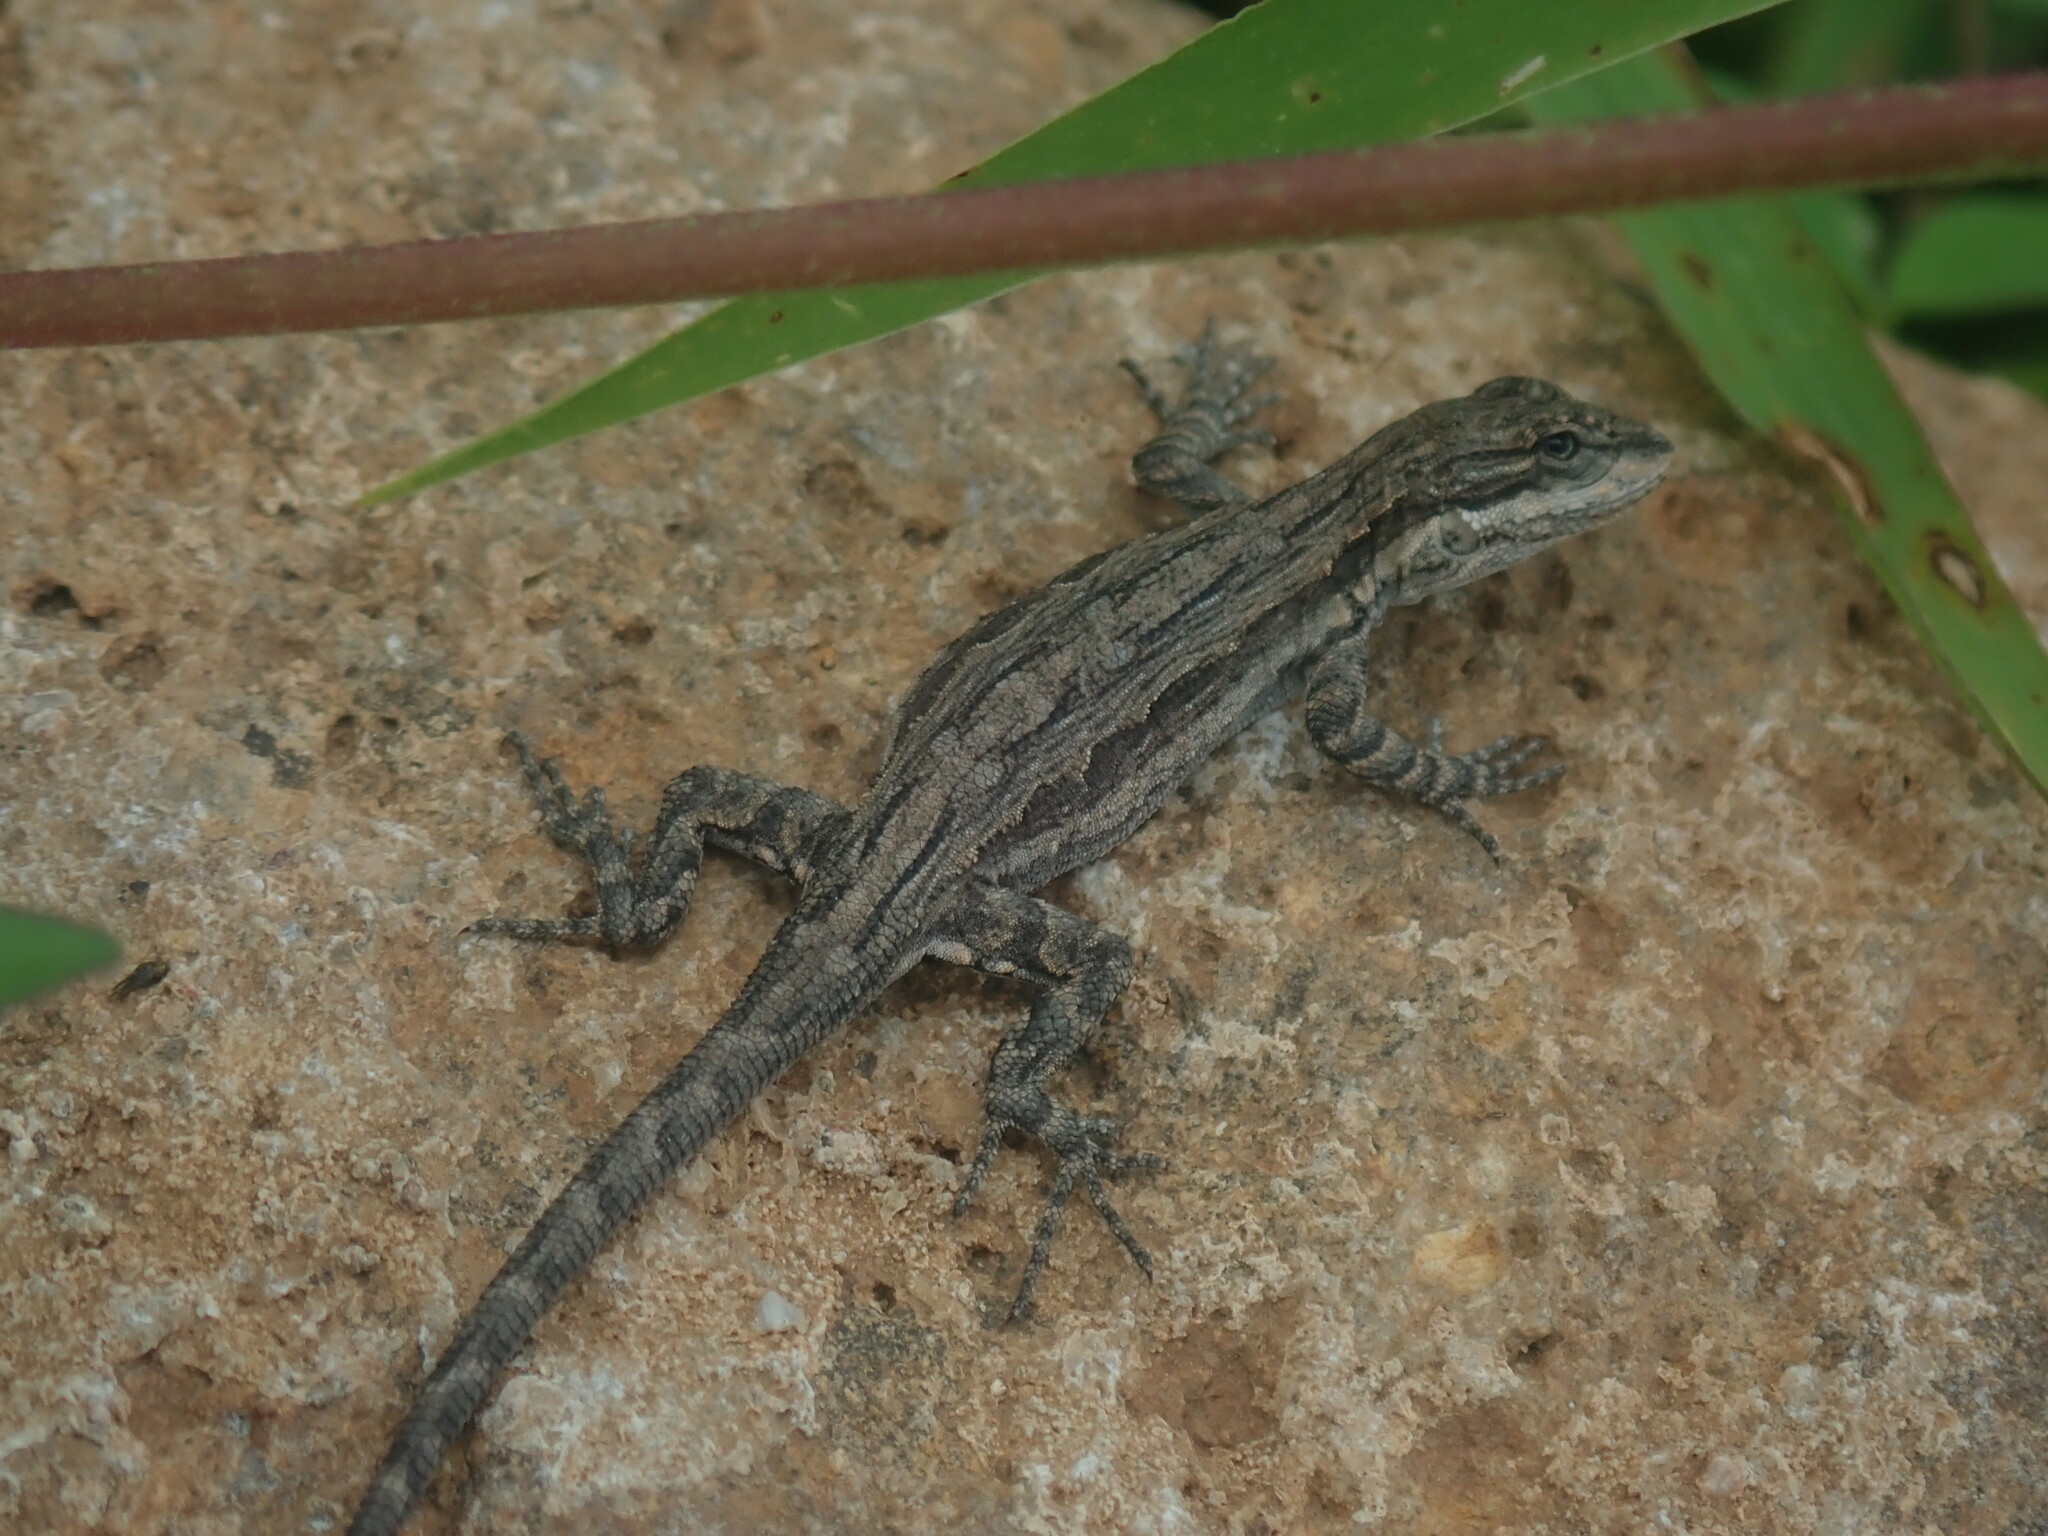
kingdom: Animalia
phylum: Chordata
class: Squamata
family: Phrynosomatidae
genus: Urosaurus
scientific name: Urosaurus ornatus
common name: Ornate tree lizard
